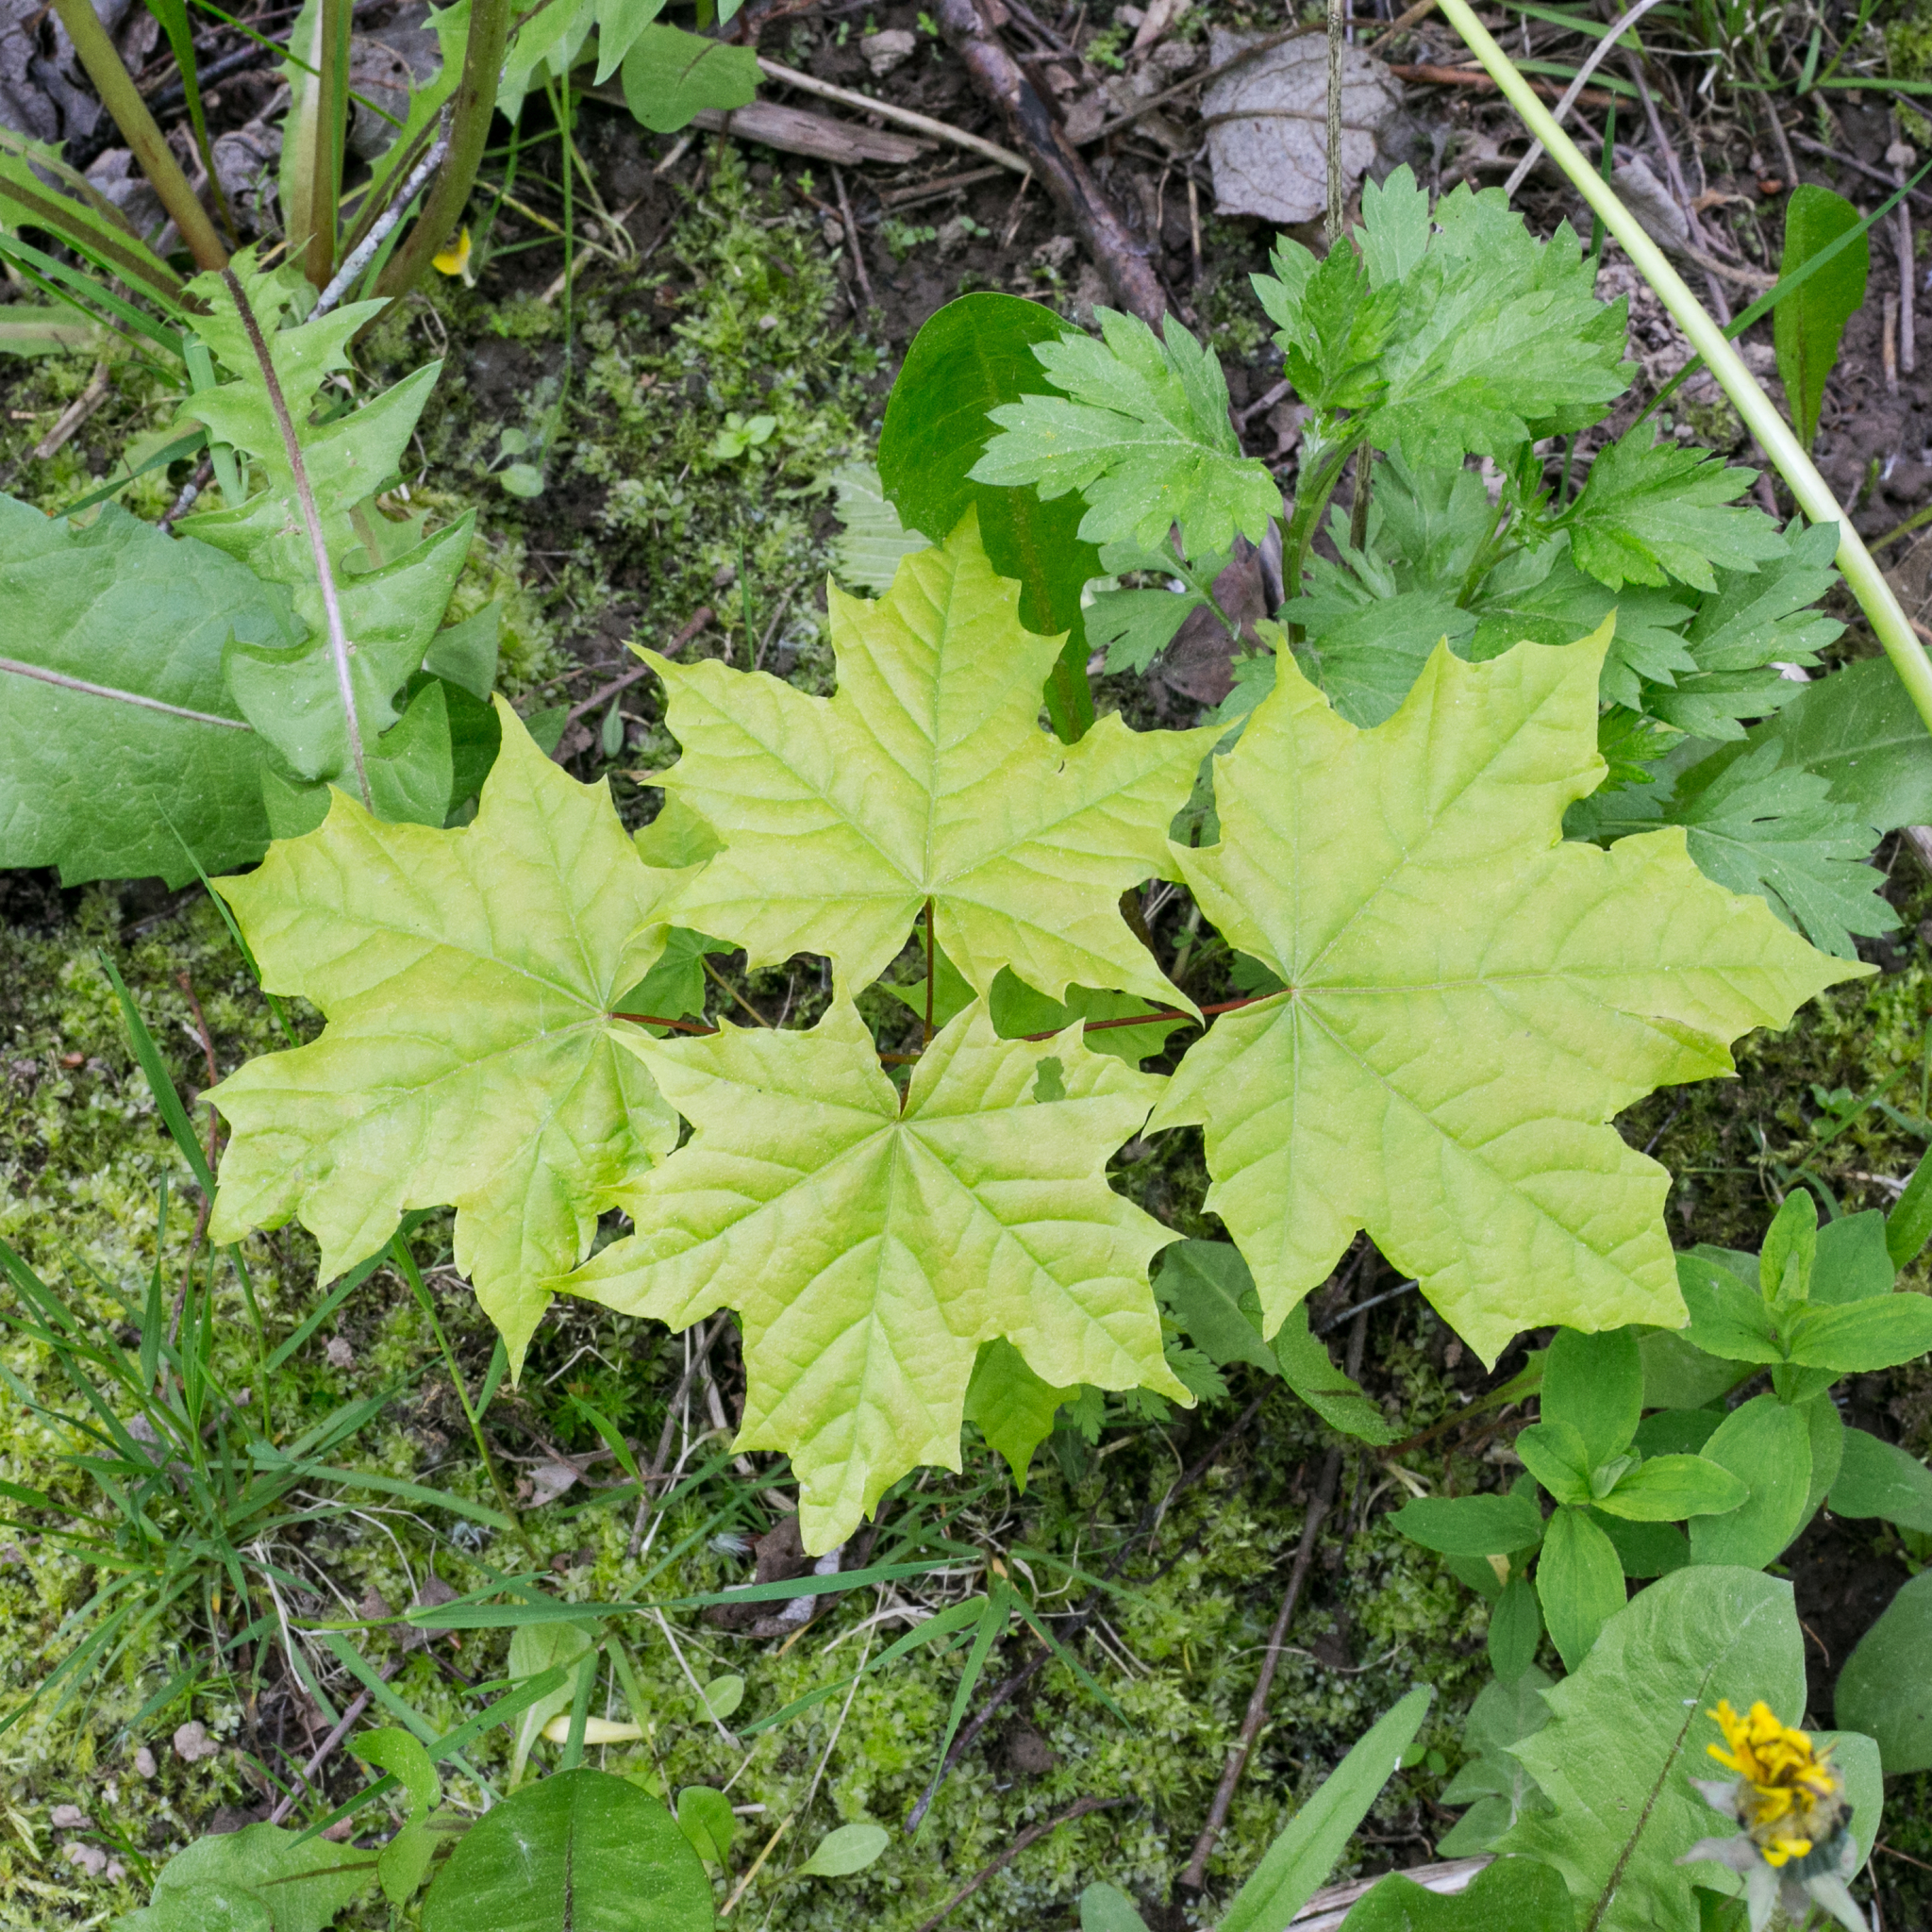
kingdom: Plantae
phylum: Tracheophyta
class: Magnoliopsida
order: Sapindales
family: Sapindaceae
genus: Acer
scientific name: Acer platanoides
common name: Norway maple
